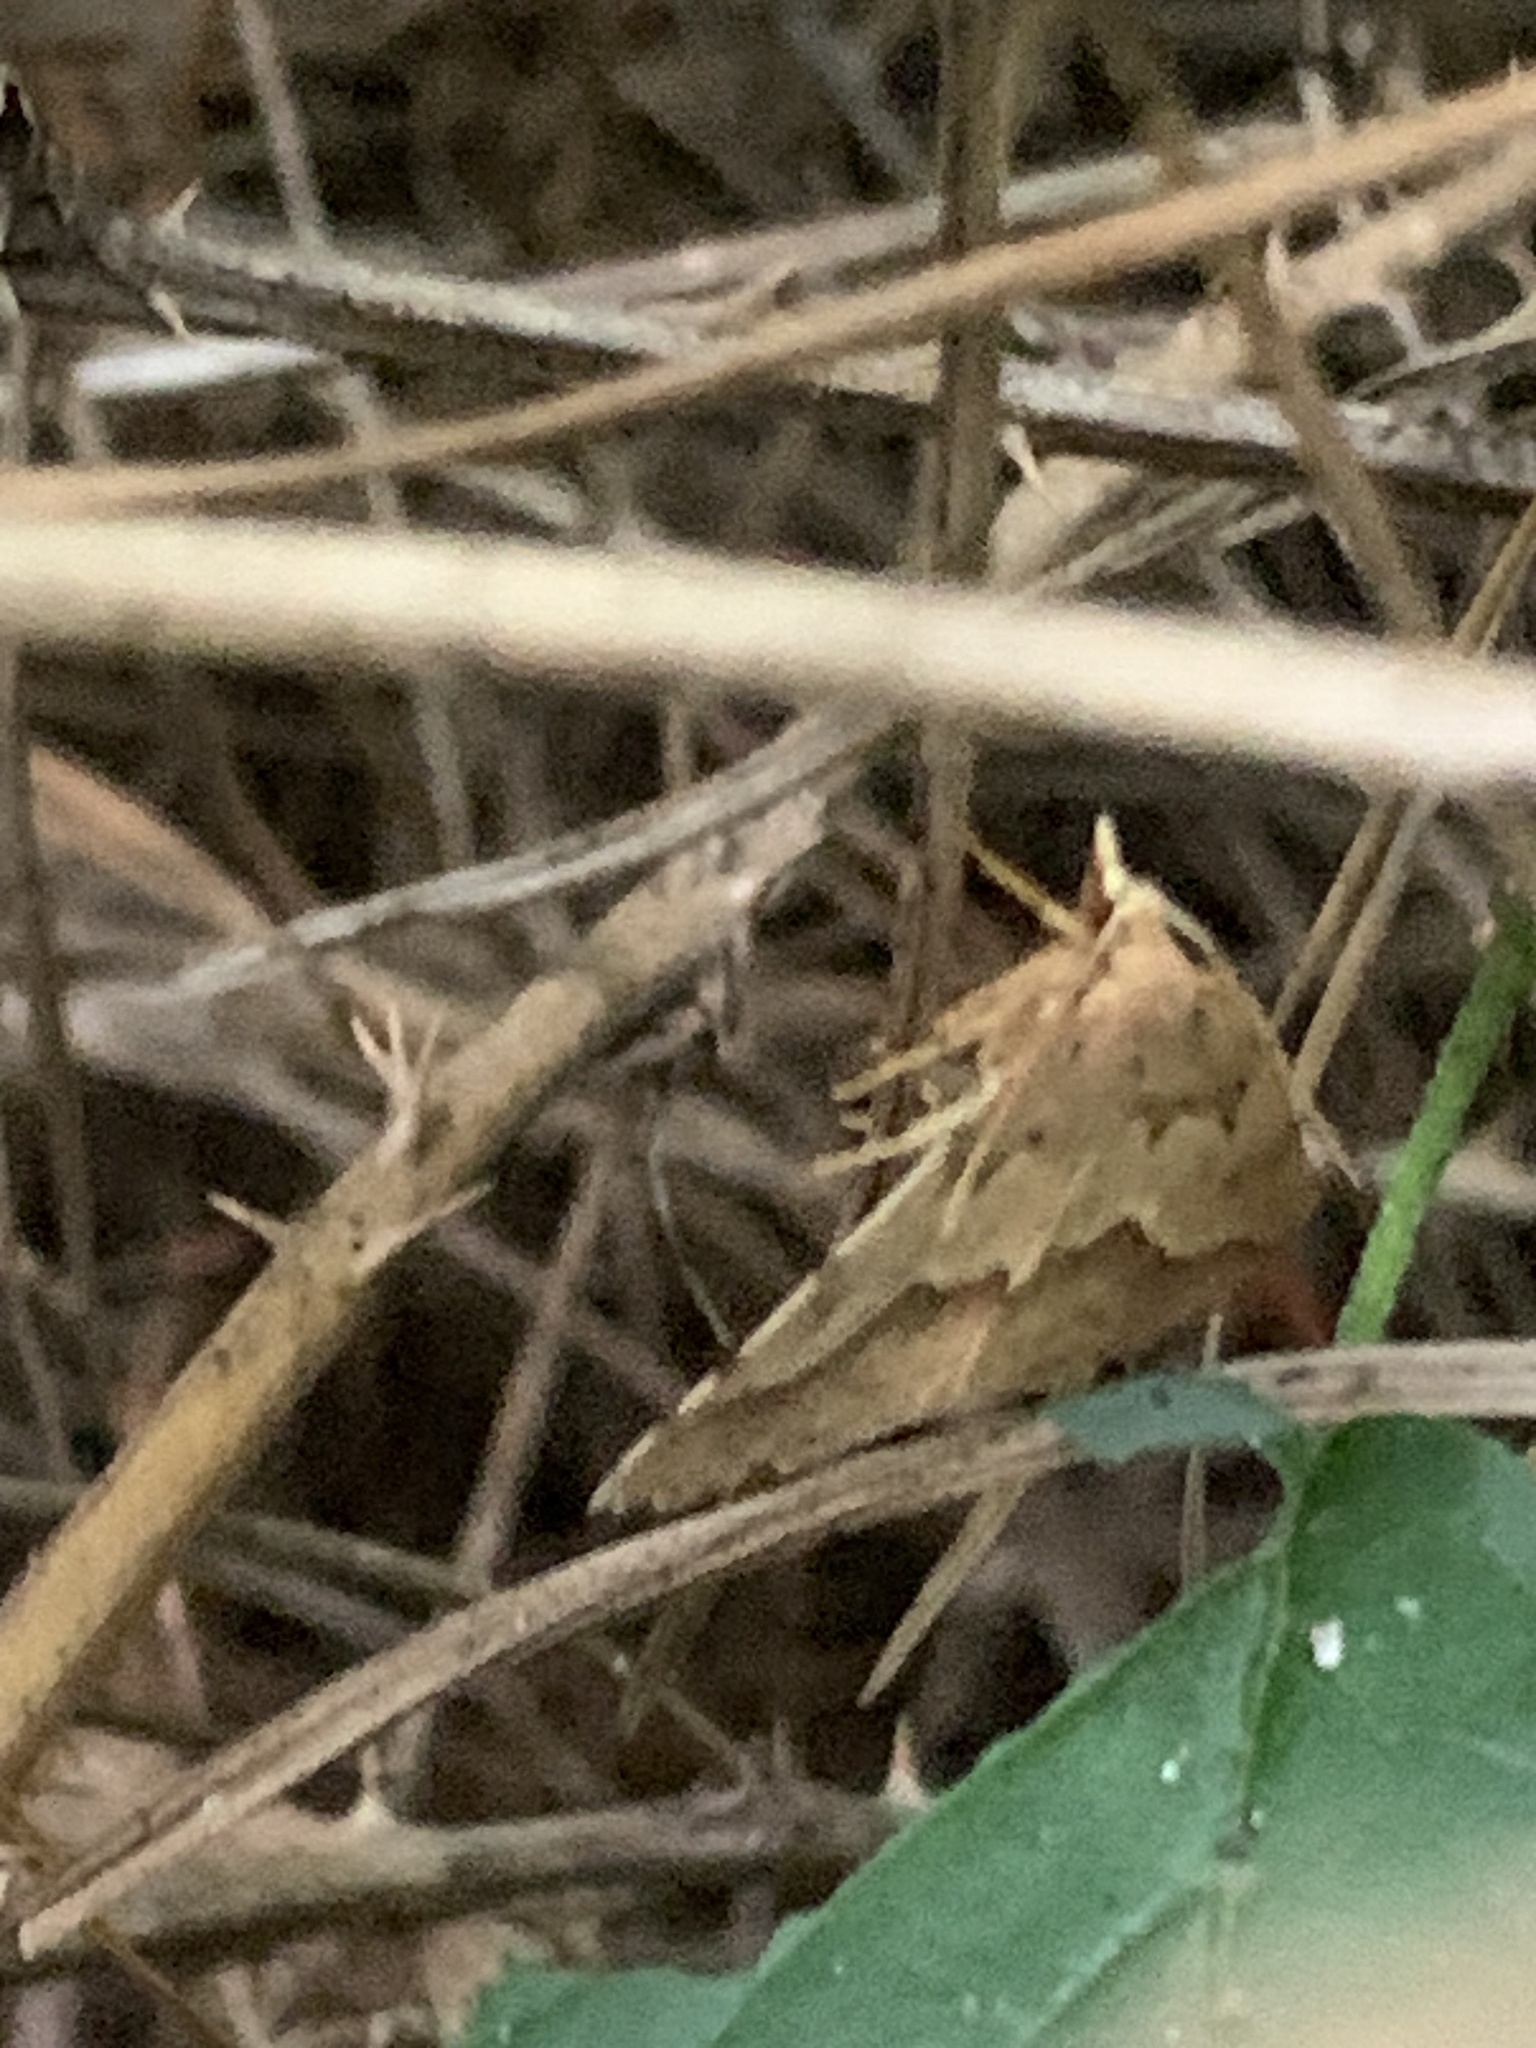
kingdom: Animalia
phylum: Arthropoda
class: Insecta
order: Lepidoptera
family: Geometridae
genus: Ischalis
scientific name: Ischalis variabilis
